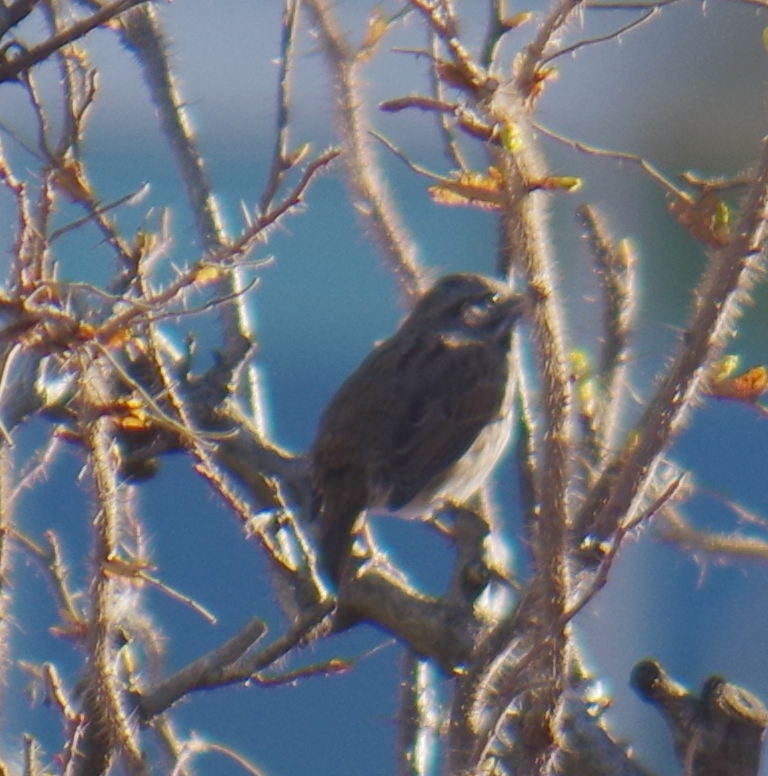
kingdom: Animalia
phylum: Chordata
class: Aves
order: Passeriformes
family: Passerellidae
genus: Melospiza
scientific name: Melospiza melodia
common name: Song sparrow
